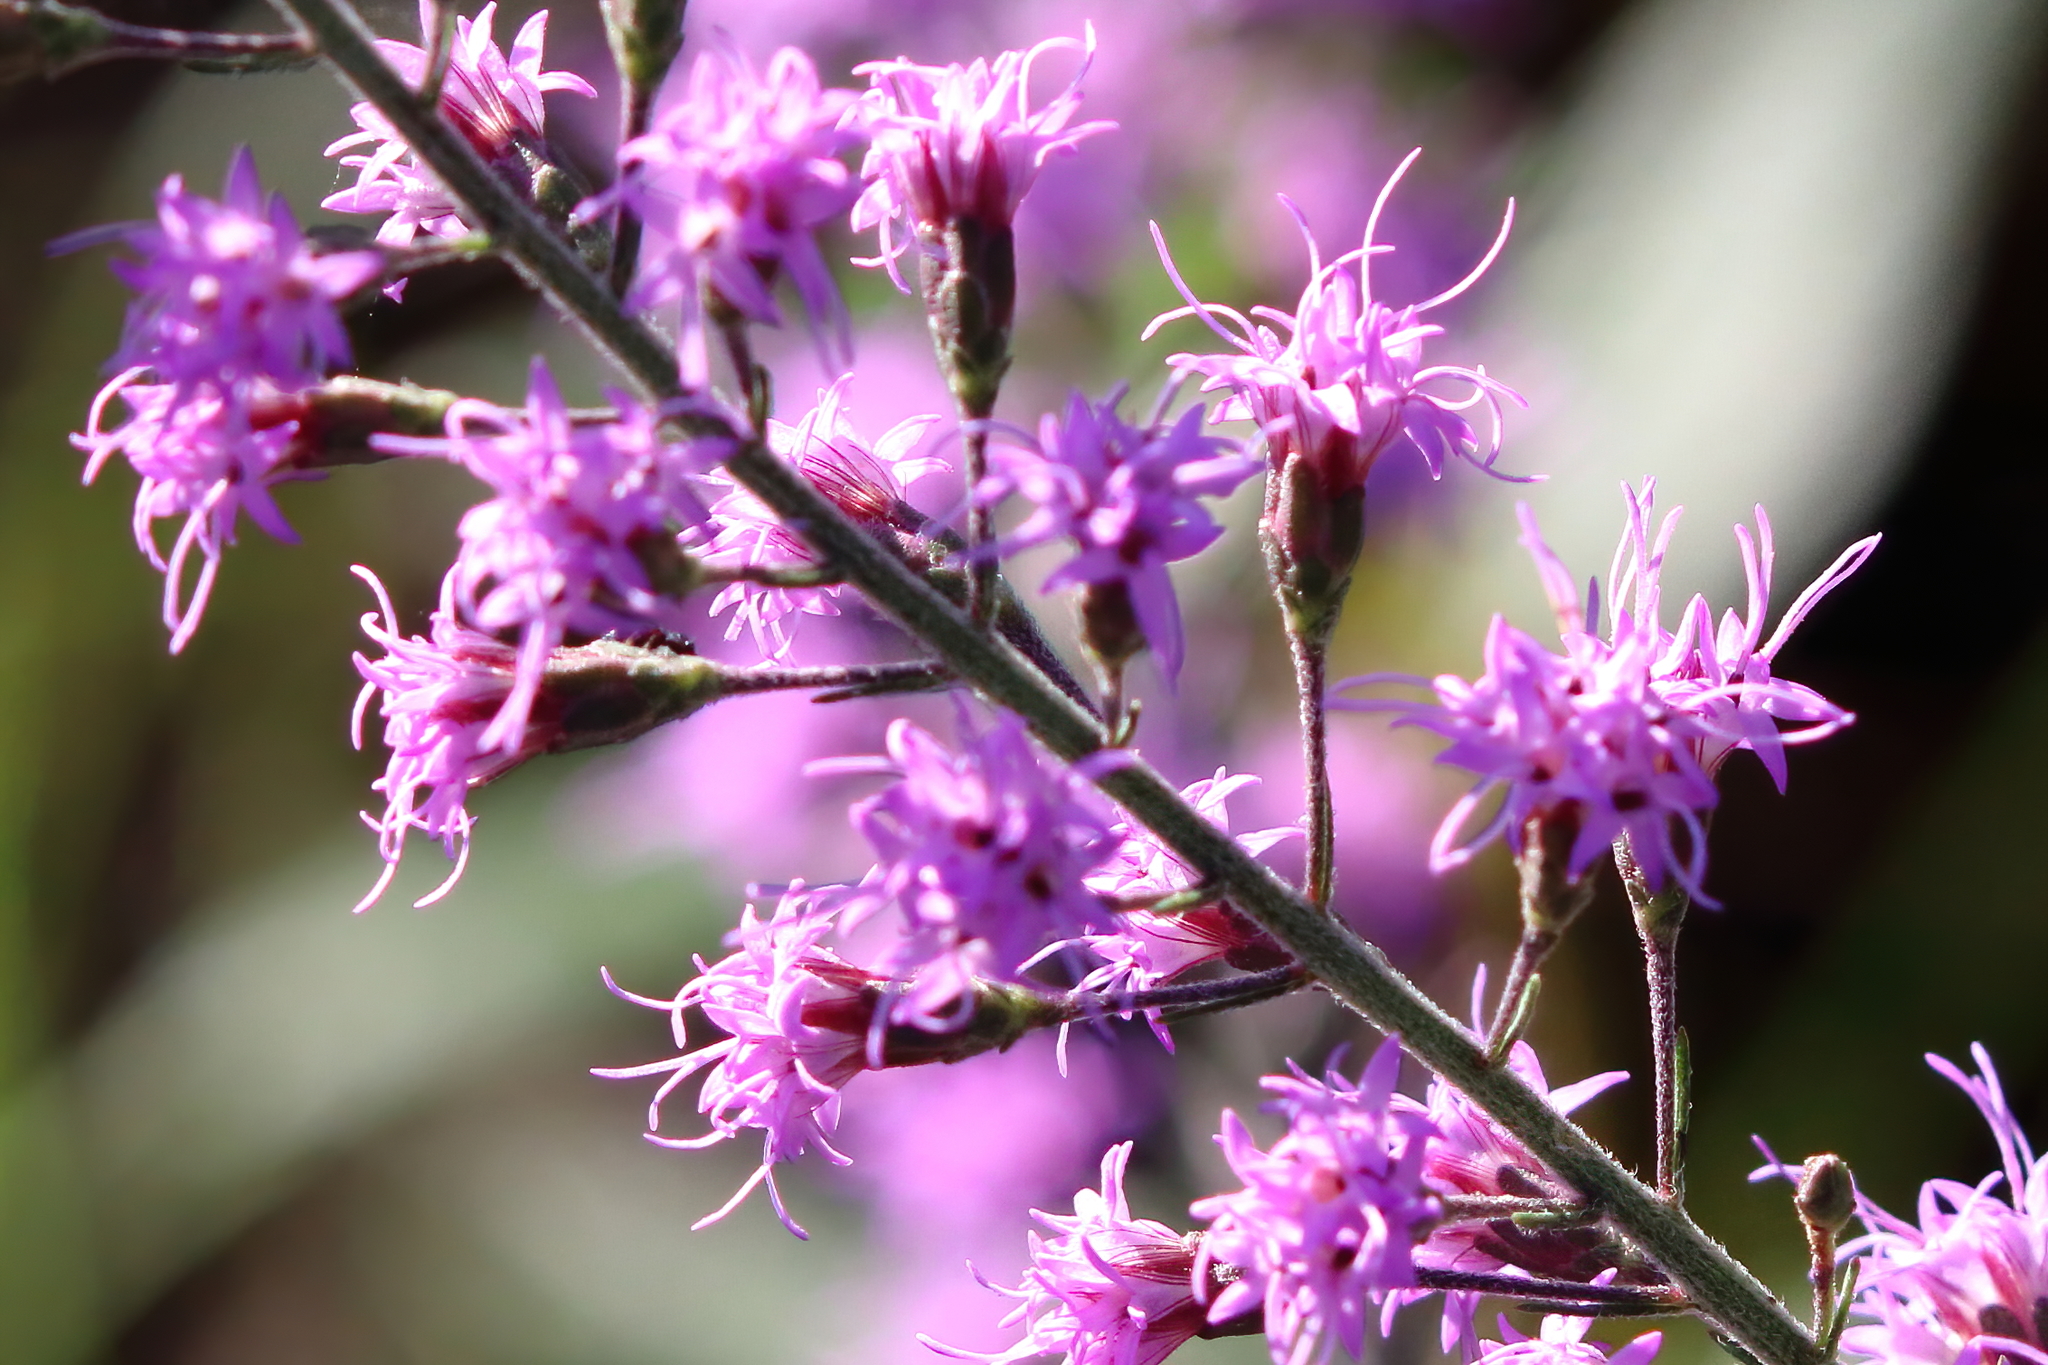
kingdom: Plantae
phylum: Tracheophyta
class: Magnoliopsida
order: Asterales
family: Asteraceae
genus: Liatris
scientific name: Liatris gracilis
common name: Slender gayfeather
